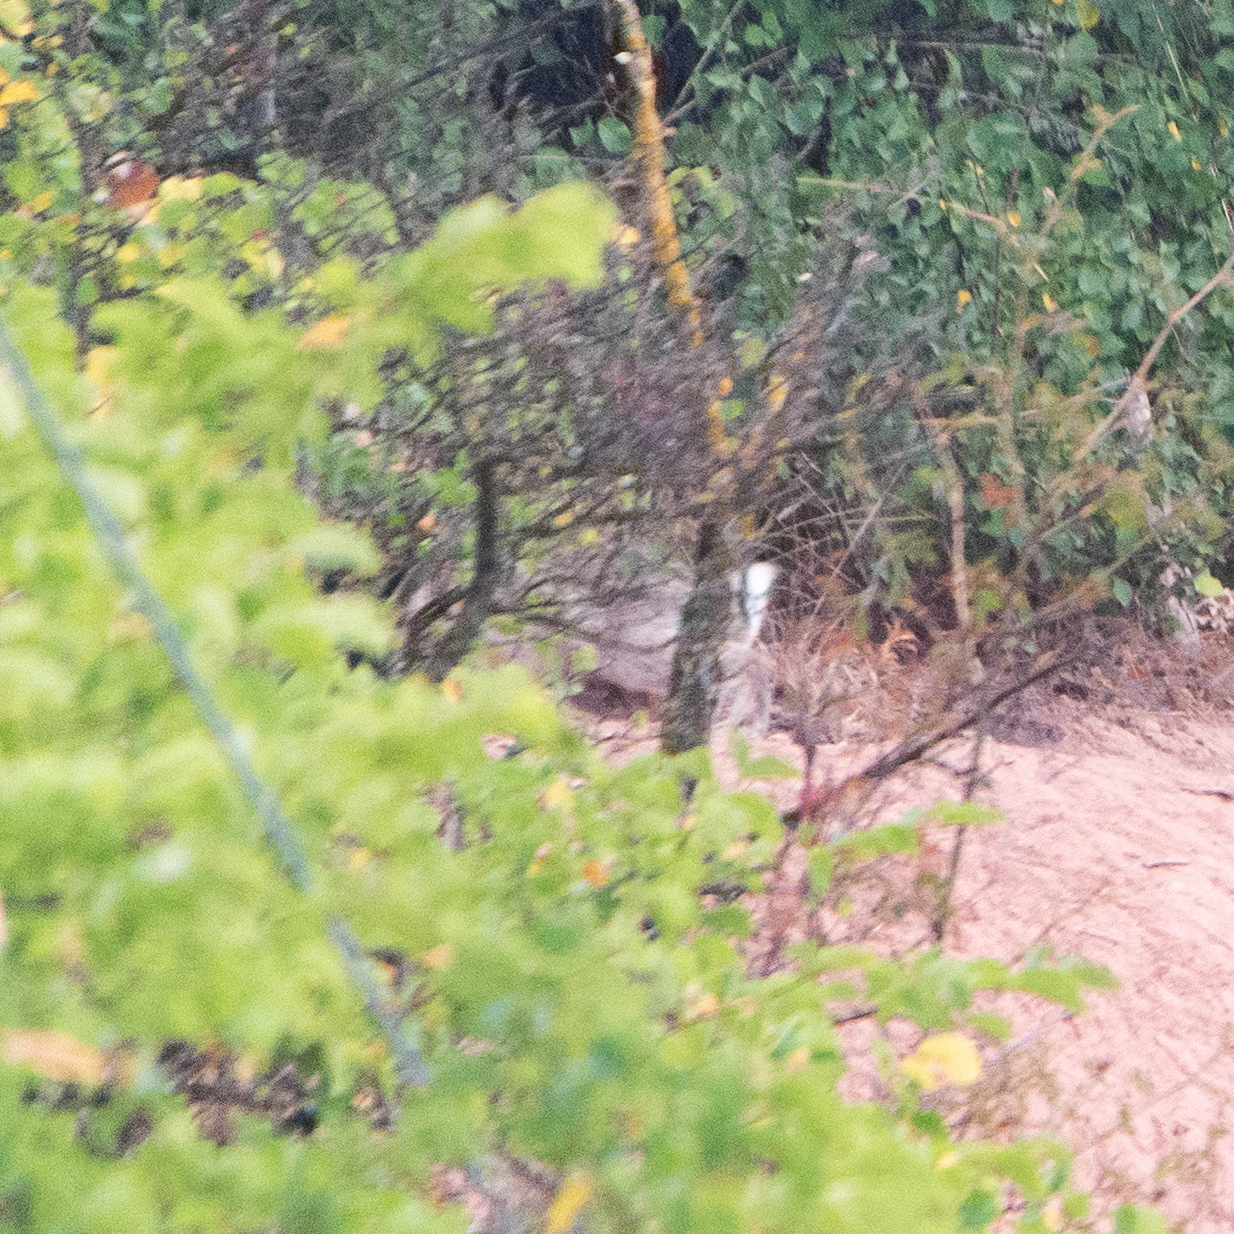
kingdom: Animalia
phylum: Chordata
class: Mammalia
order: Lagomorpha
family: Leporidae
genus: Oryctolagus
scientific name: Oryctolagus cuniculus
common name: European rabbit
